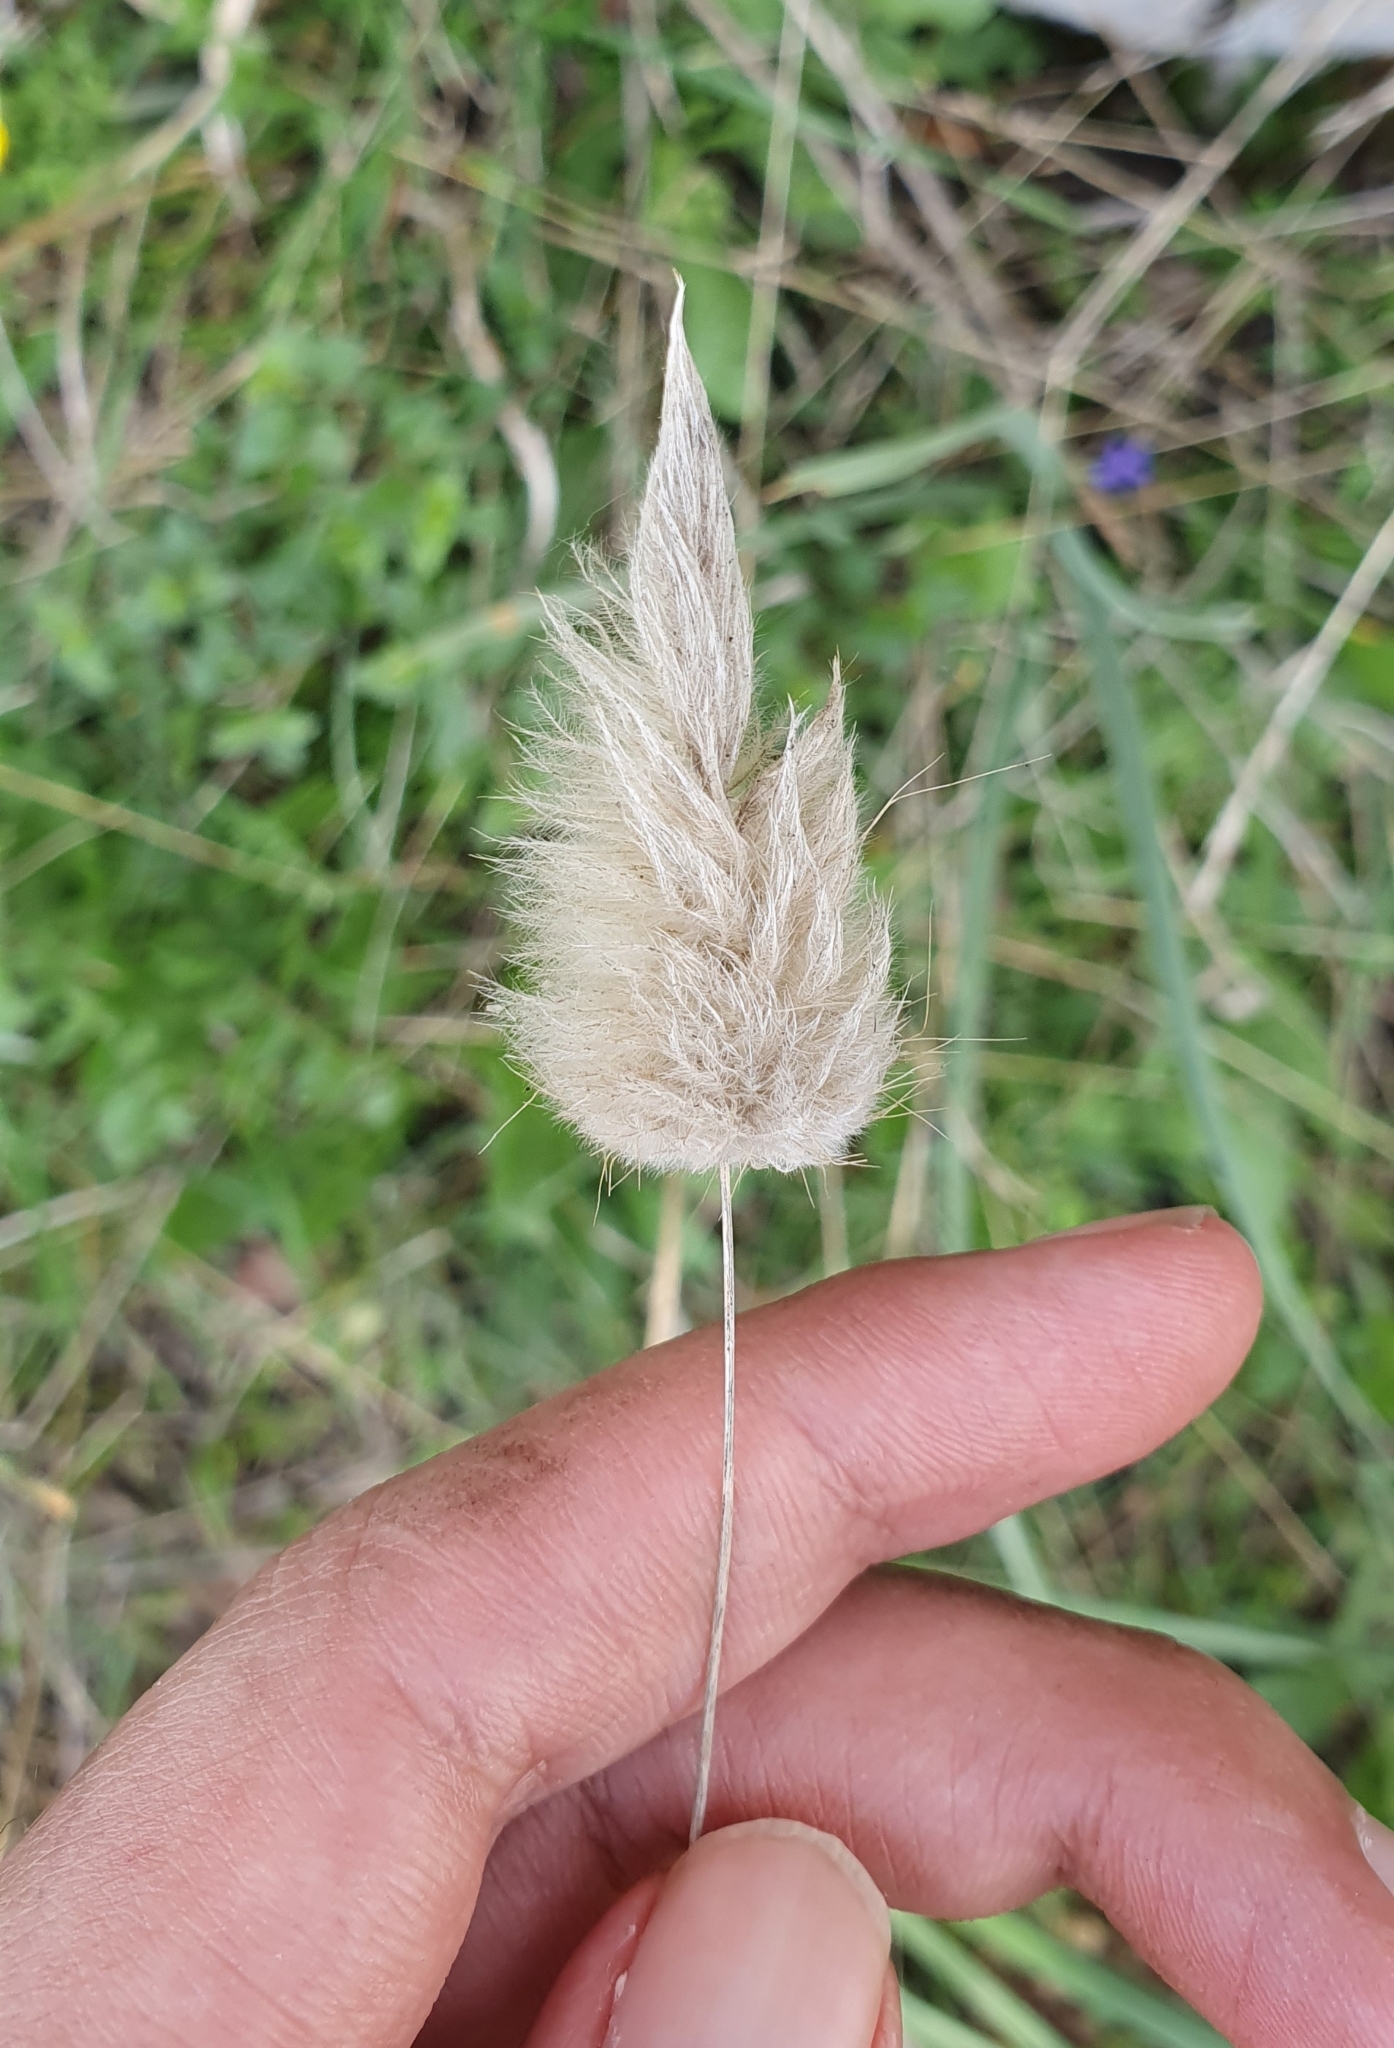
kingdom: Plantae
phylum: Tracheophyta
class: Liliopsida
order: Poales
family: Poaceae
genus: Lagurus
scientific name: Lagurus ovatus
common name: Hare's-tail
